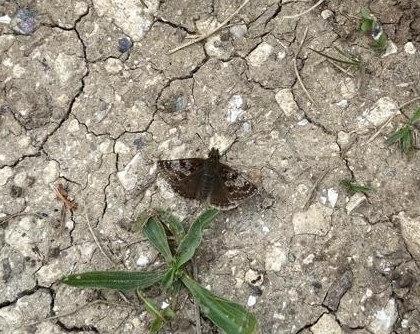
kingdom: Animalia
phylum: Arthropoda
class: Insecta
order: Lepidoptera
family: Hesperiidae
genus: Erynnis
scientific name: Erynnis tages
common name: Dingy skipper
